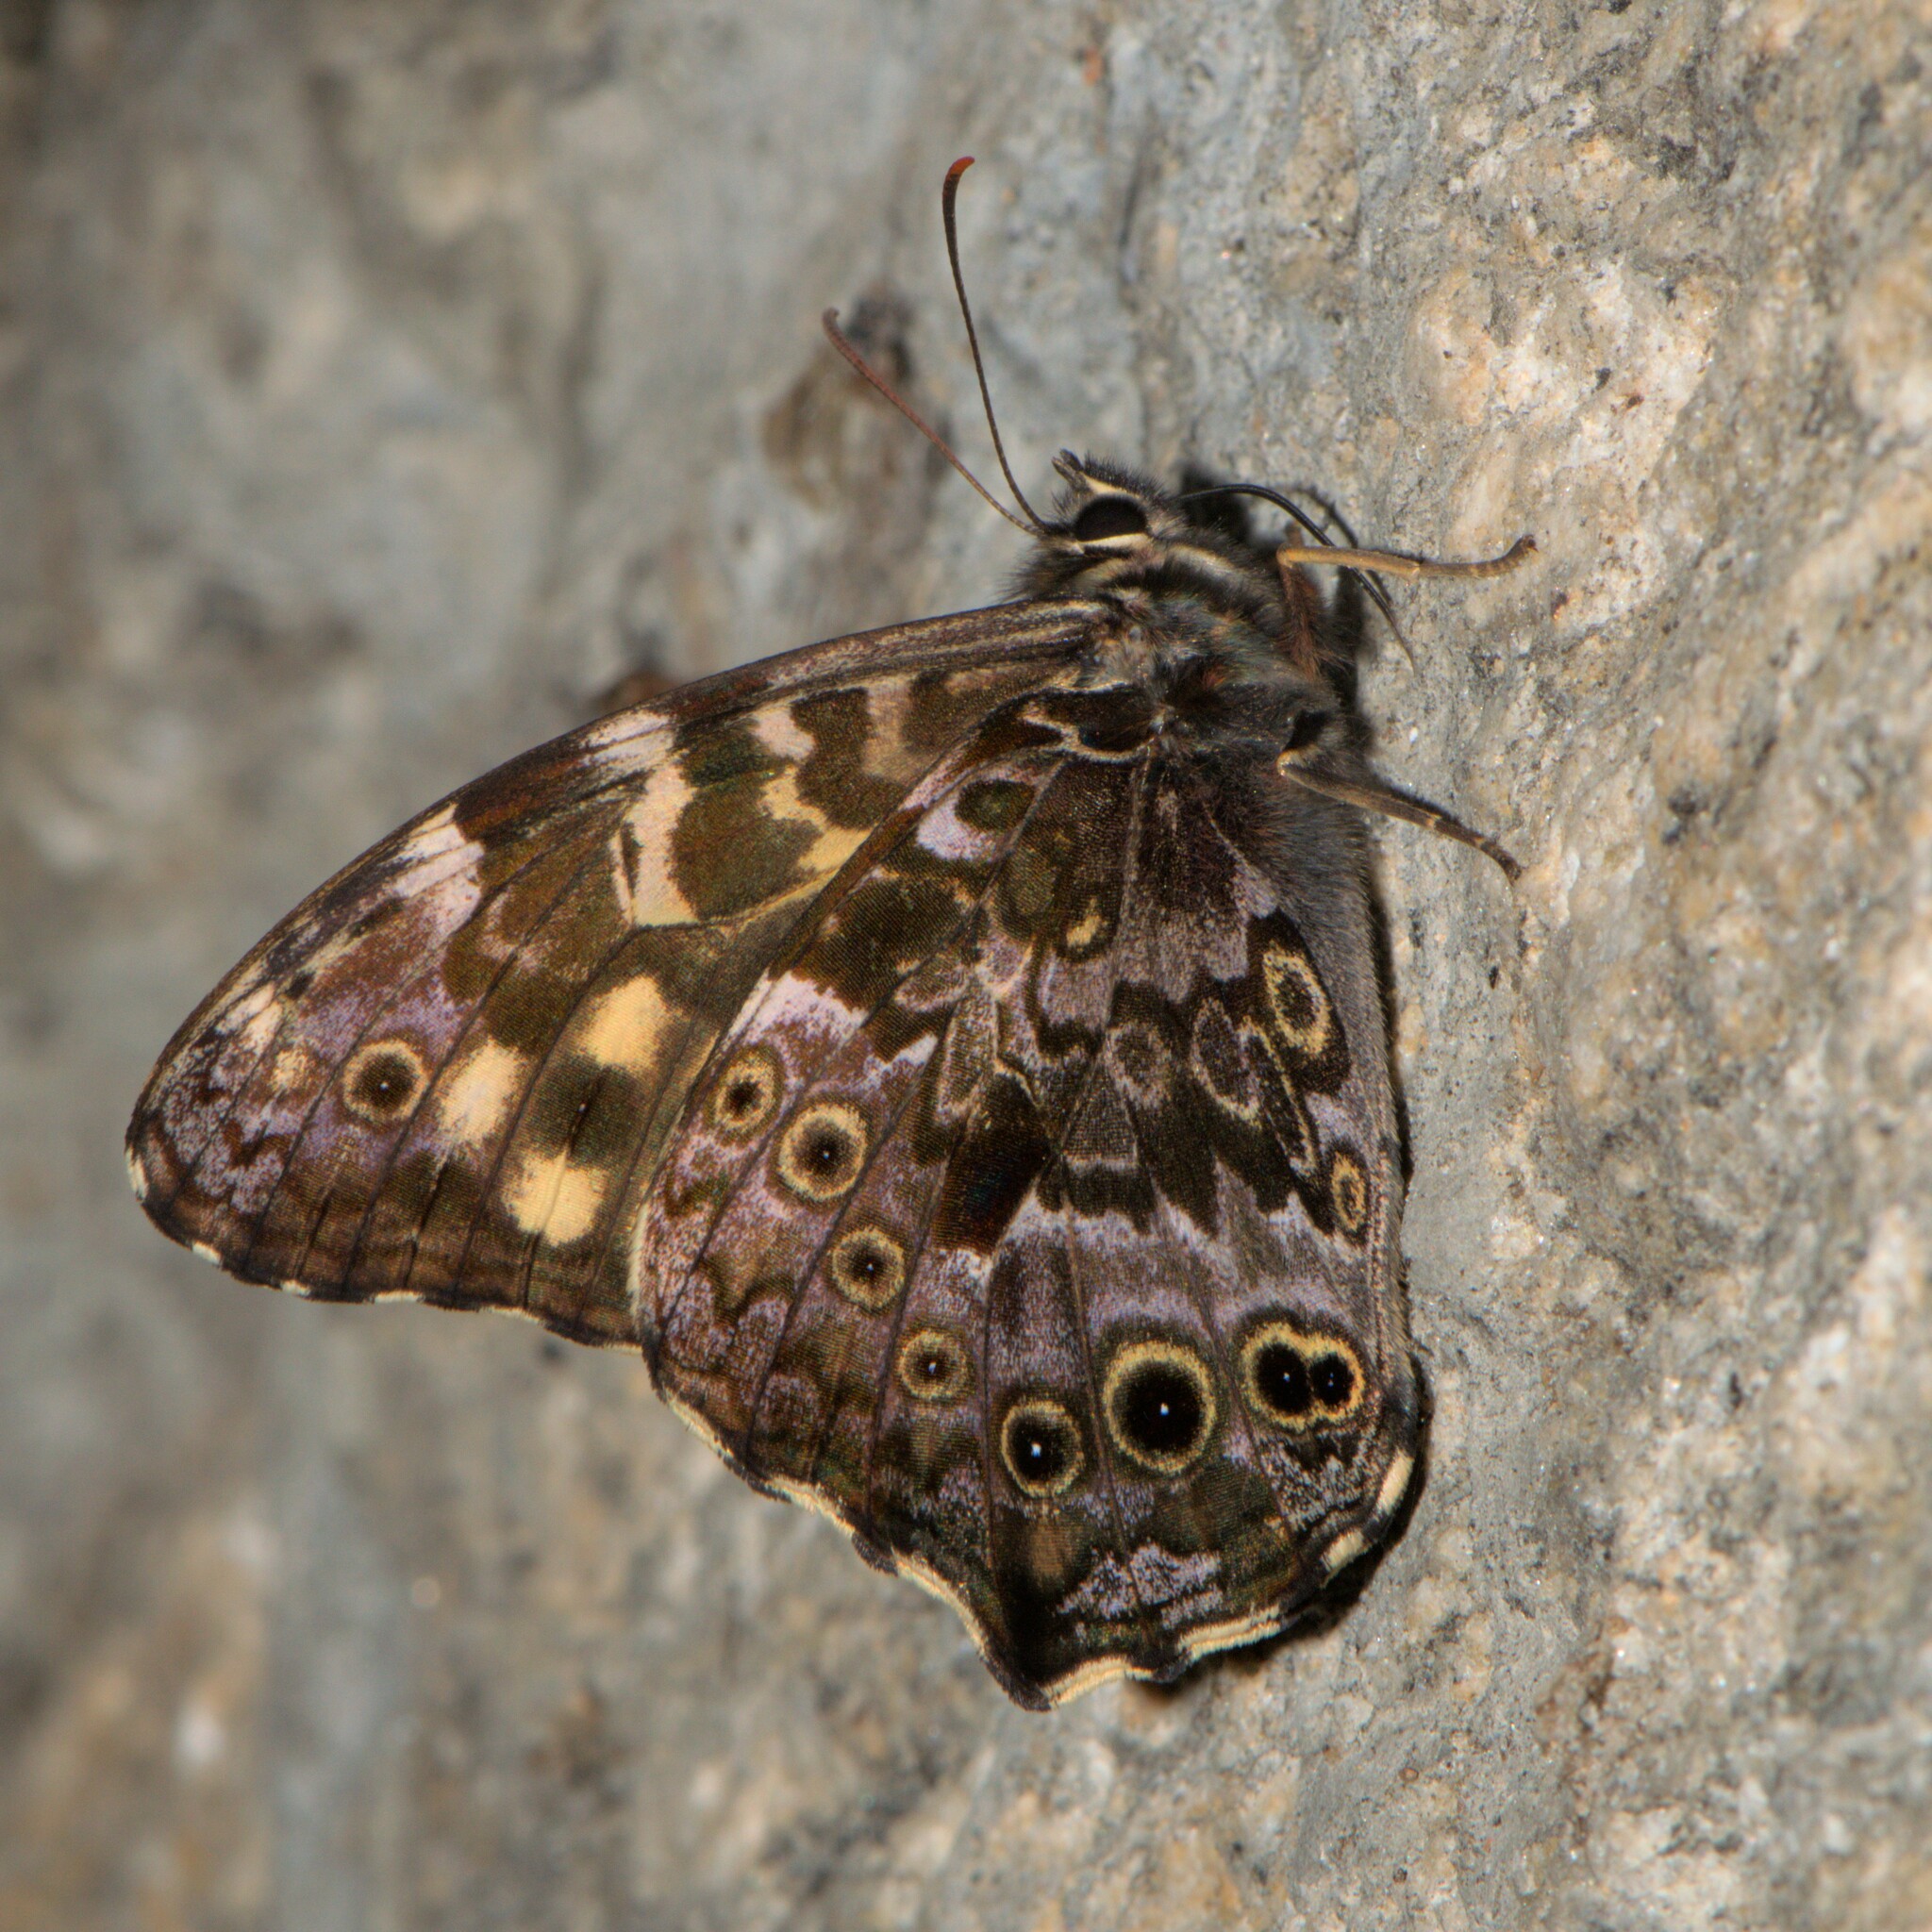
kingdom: Animalia
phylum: Arthropoda
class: Insecta
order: Lepidoptera
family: Nymphalidae
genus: Neope
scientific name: Neope pulaha
